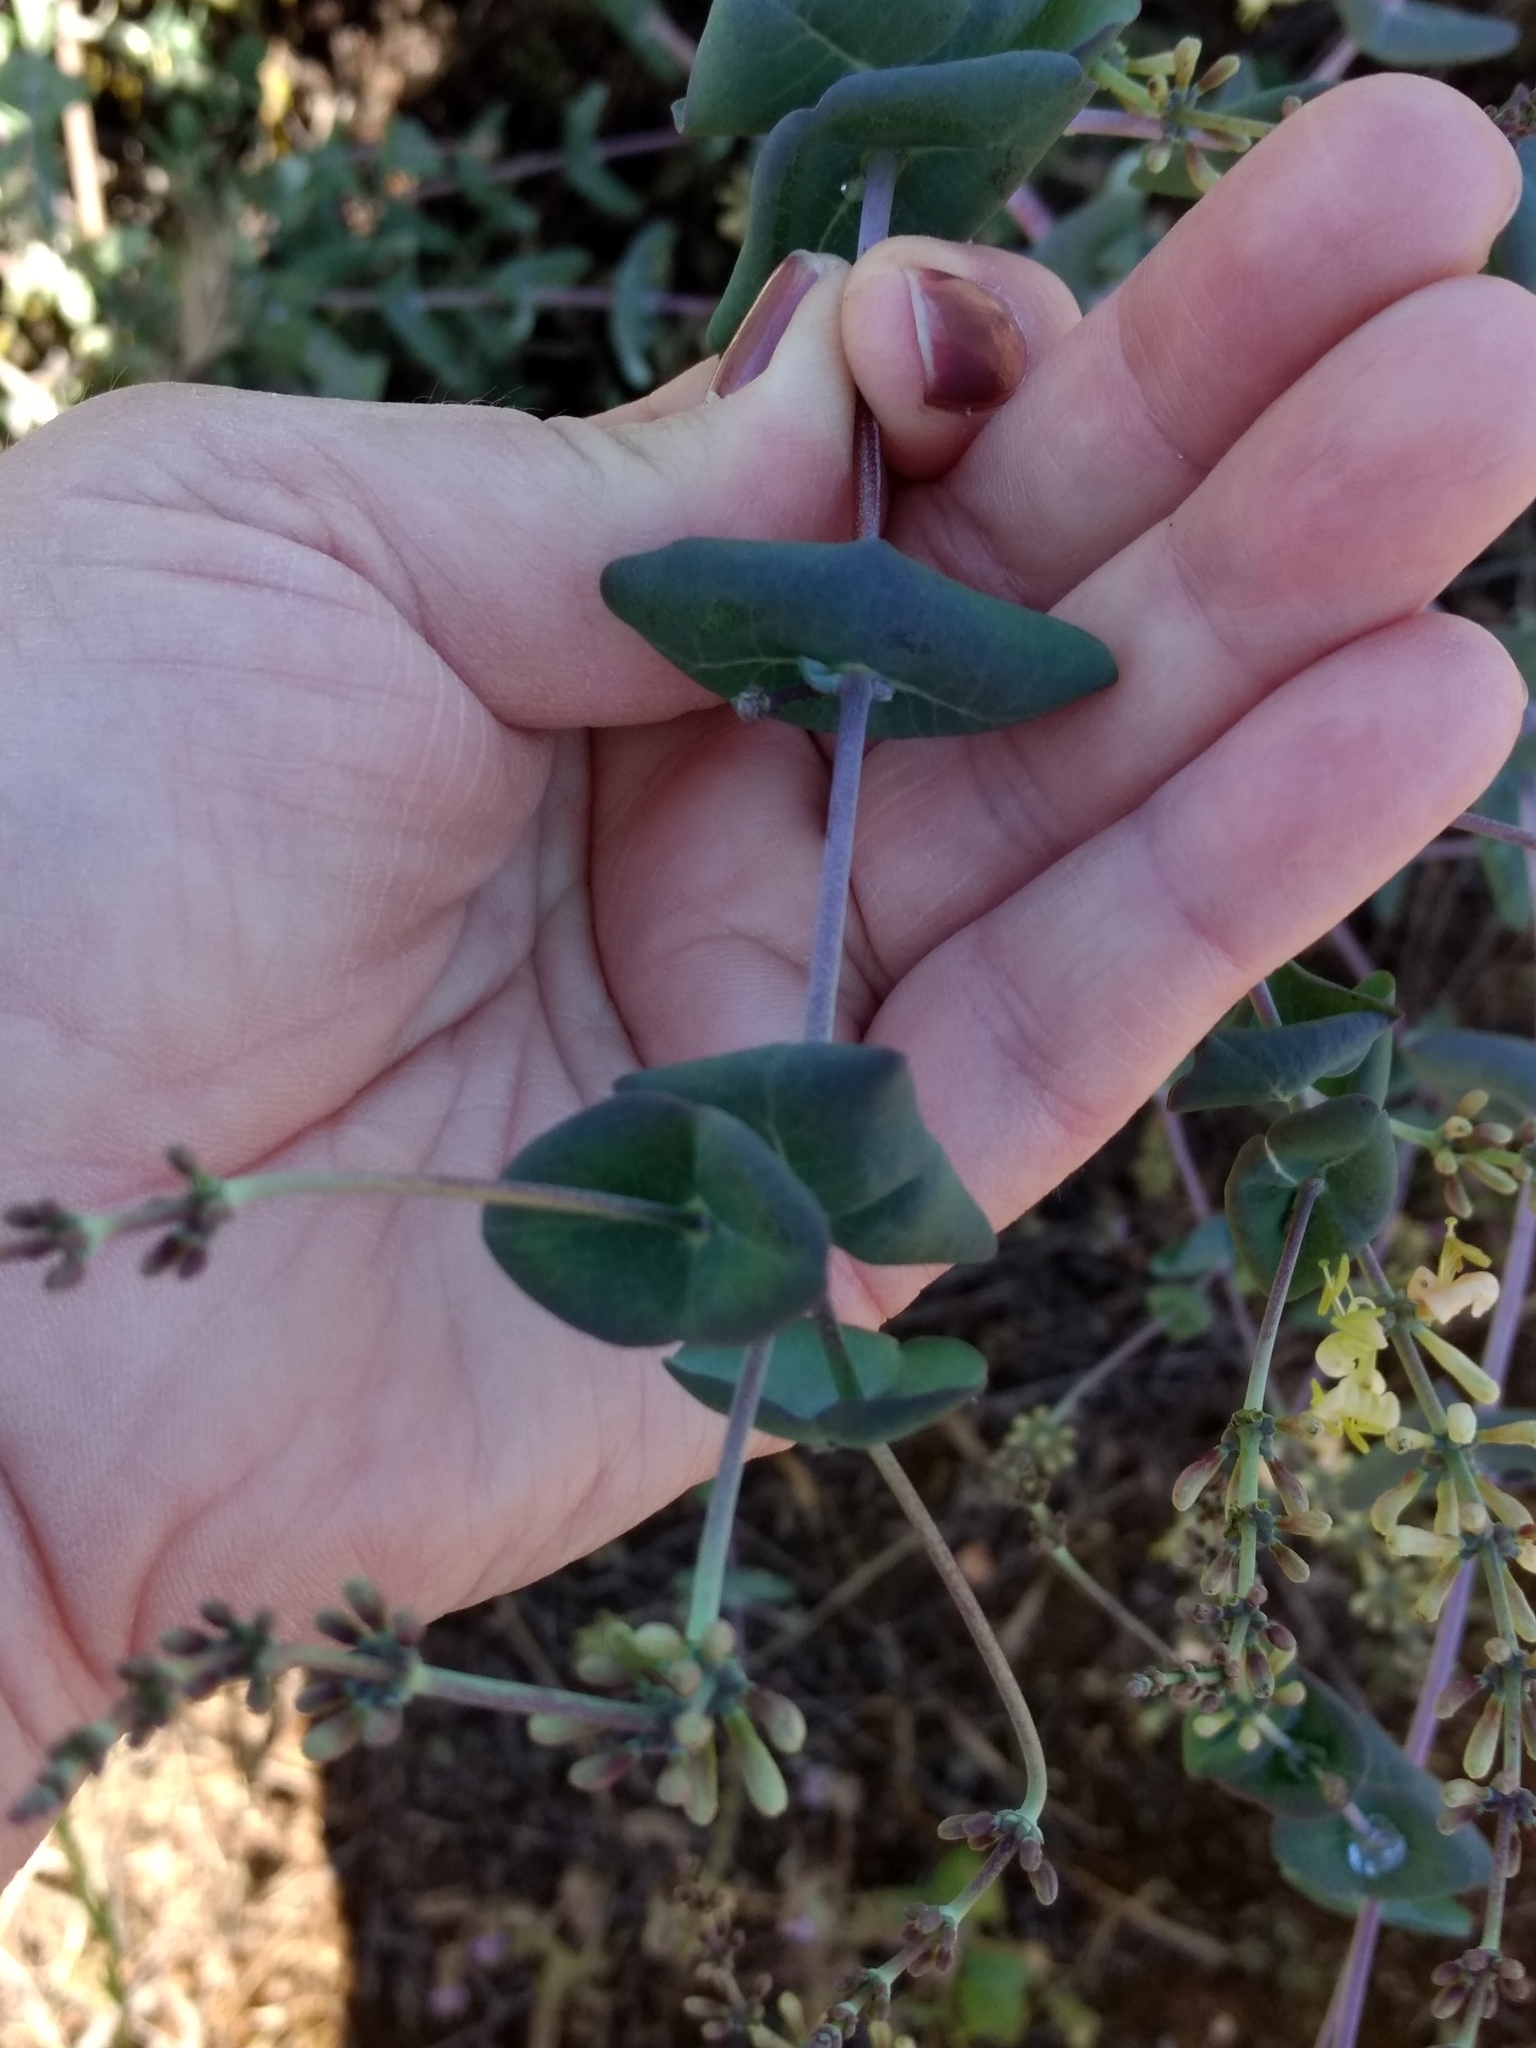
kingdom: Plantae
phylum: Tracheophyta
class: Magnoliopsida
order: Dipsacales
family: Caprifoliaceae
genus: Lonicera
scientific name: Lonicera interrupta
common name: Chaparral honeysuckle
